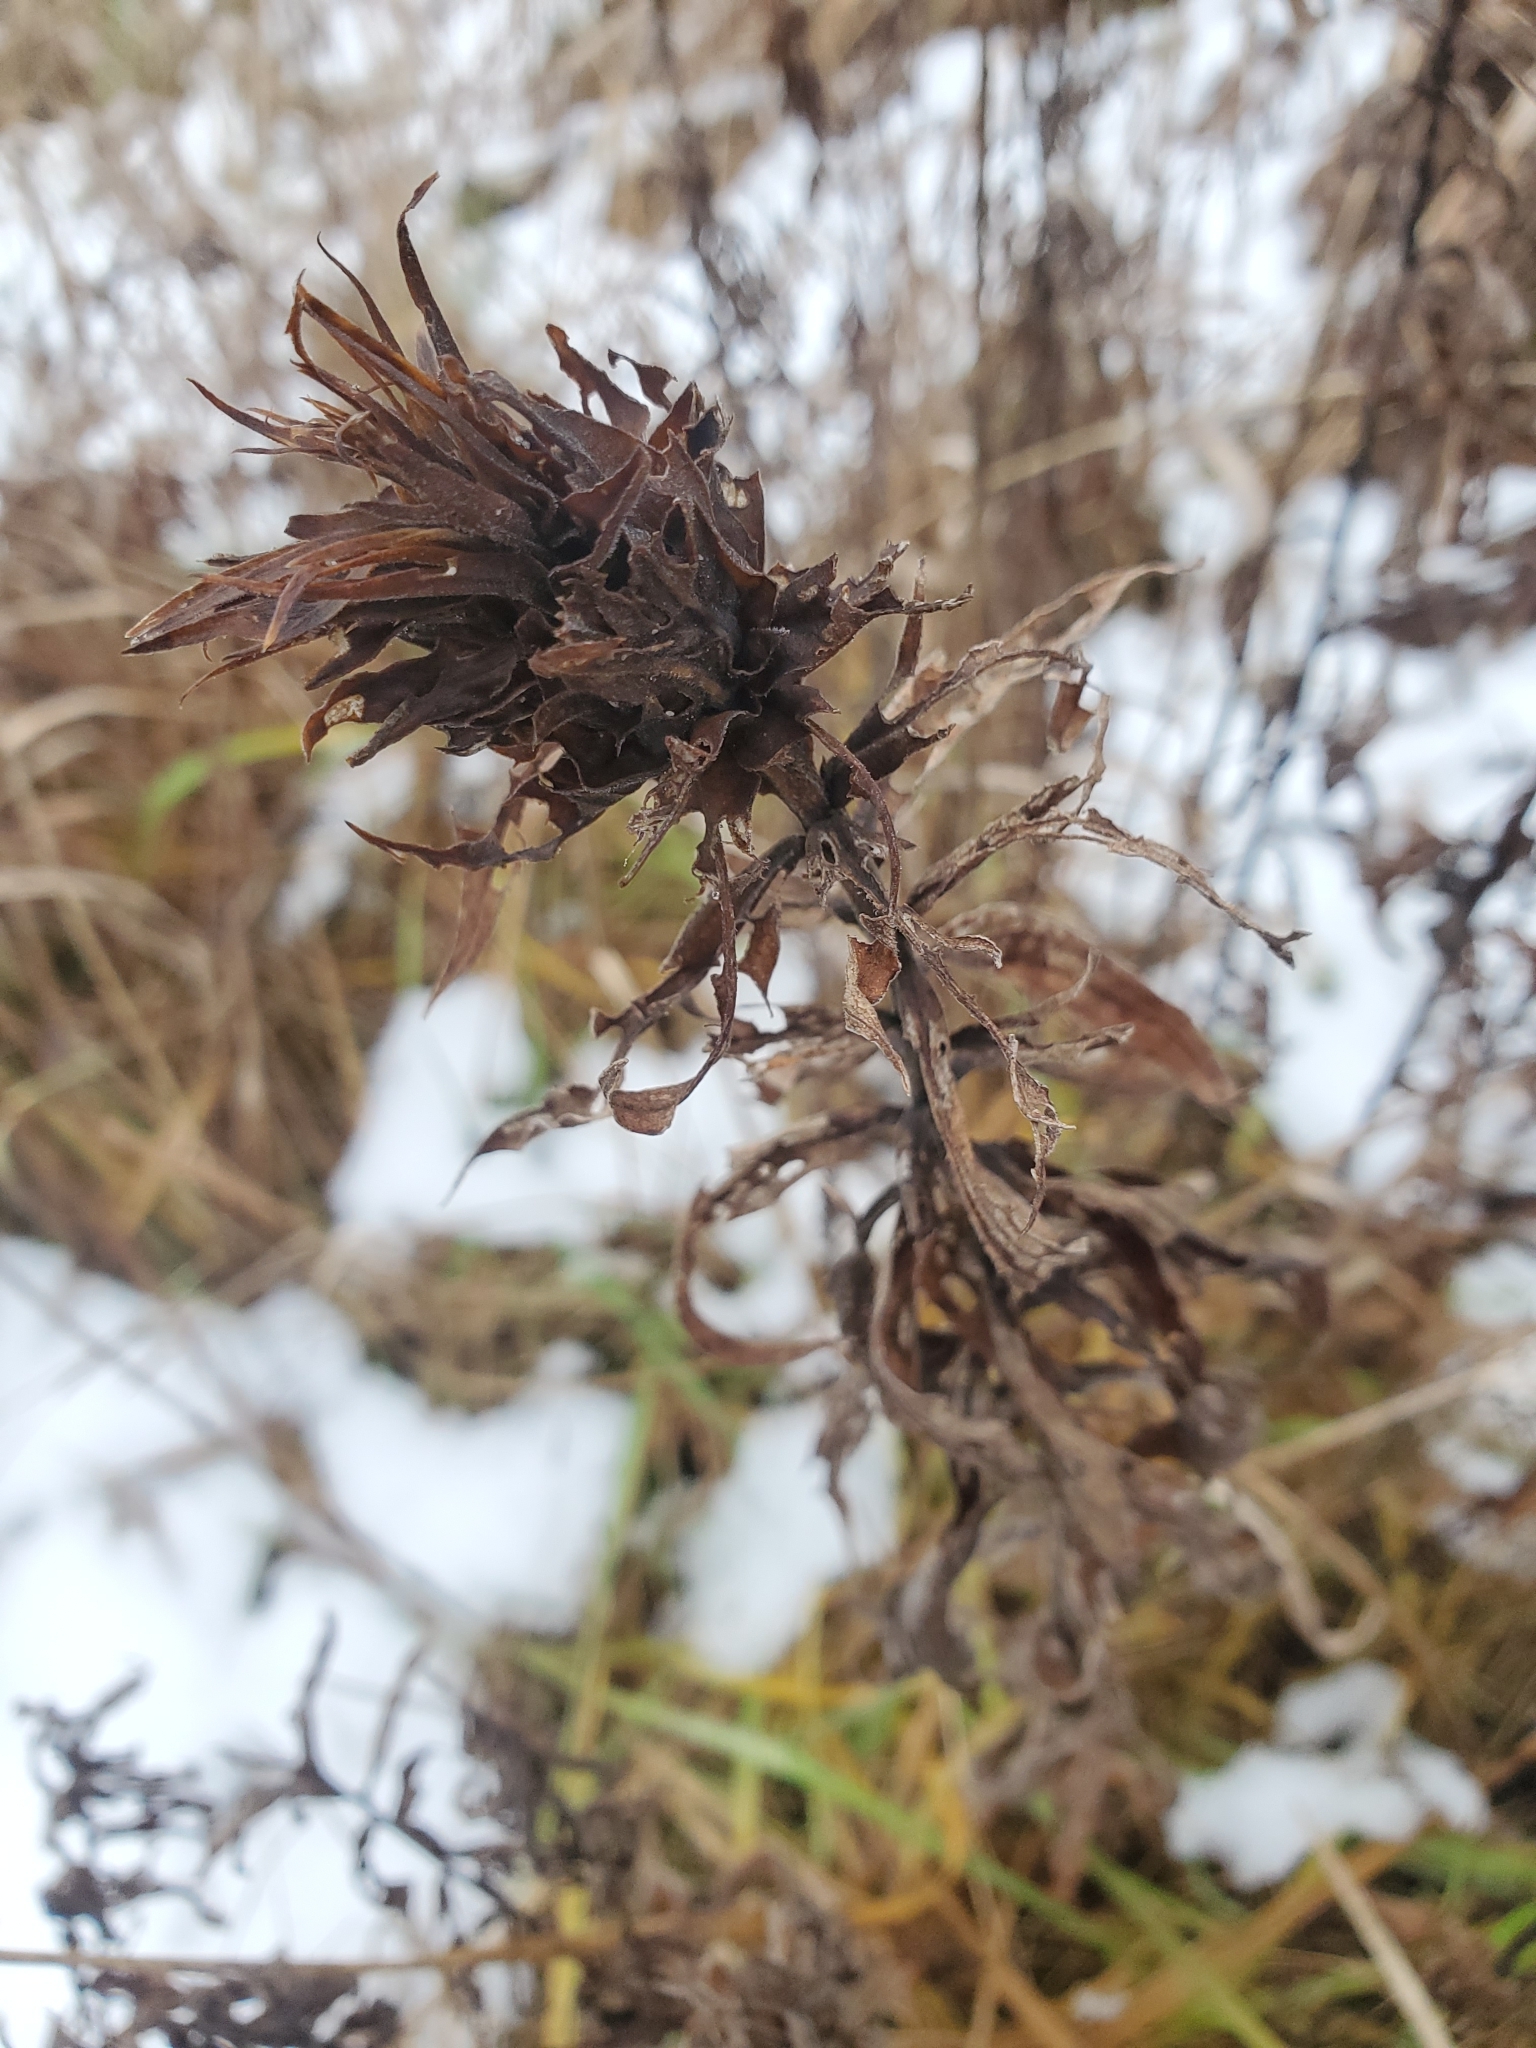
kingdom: Animalia
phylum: Arthropoda
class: Insecta
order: Diptera
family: Cecidomyiidae
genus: Rhopalomyia
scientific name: Rhopalomyia solidaginis
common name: Goldenrod bunch gall midge
